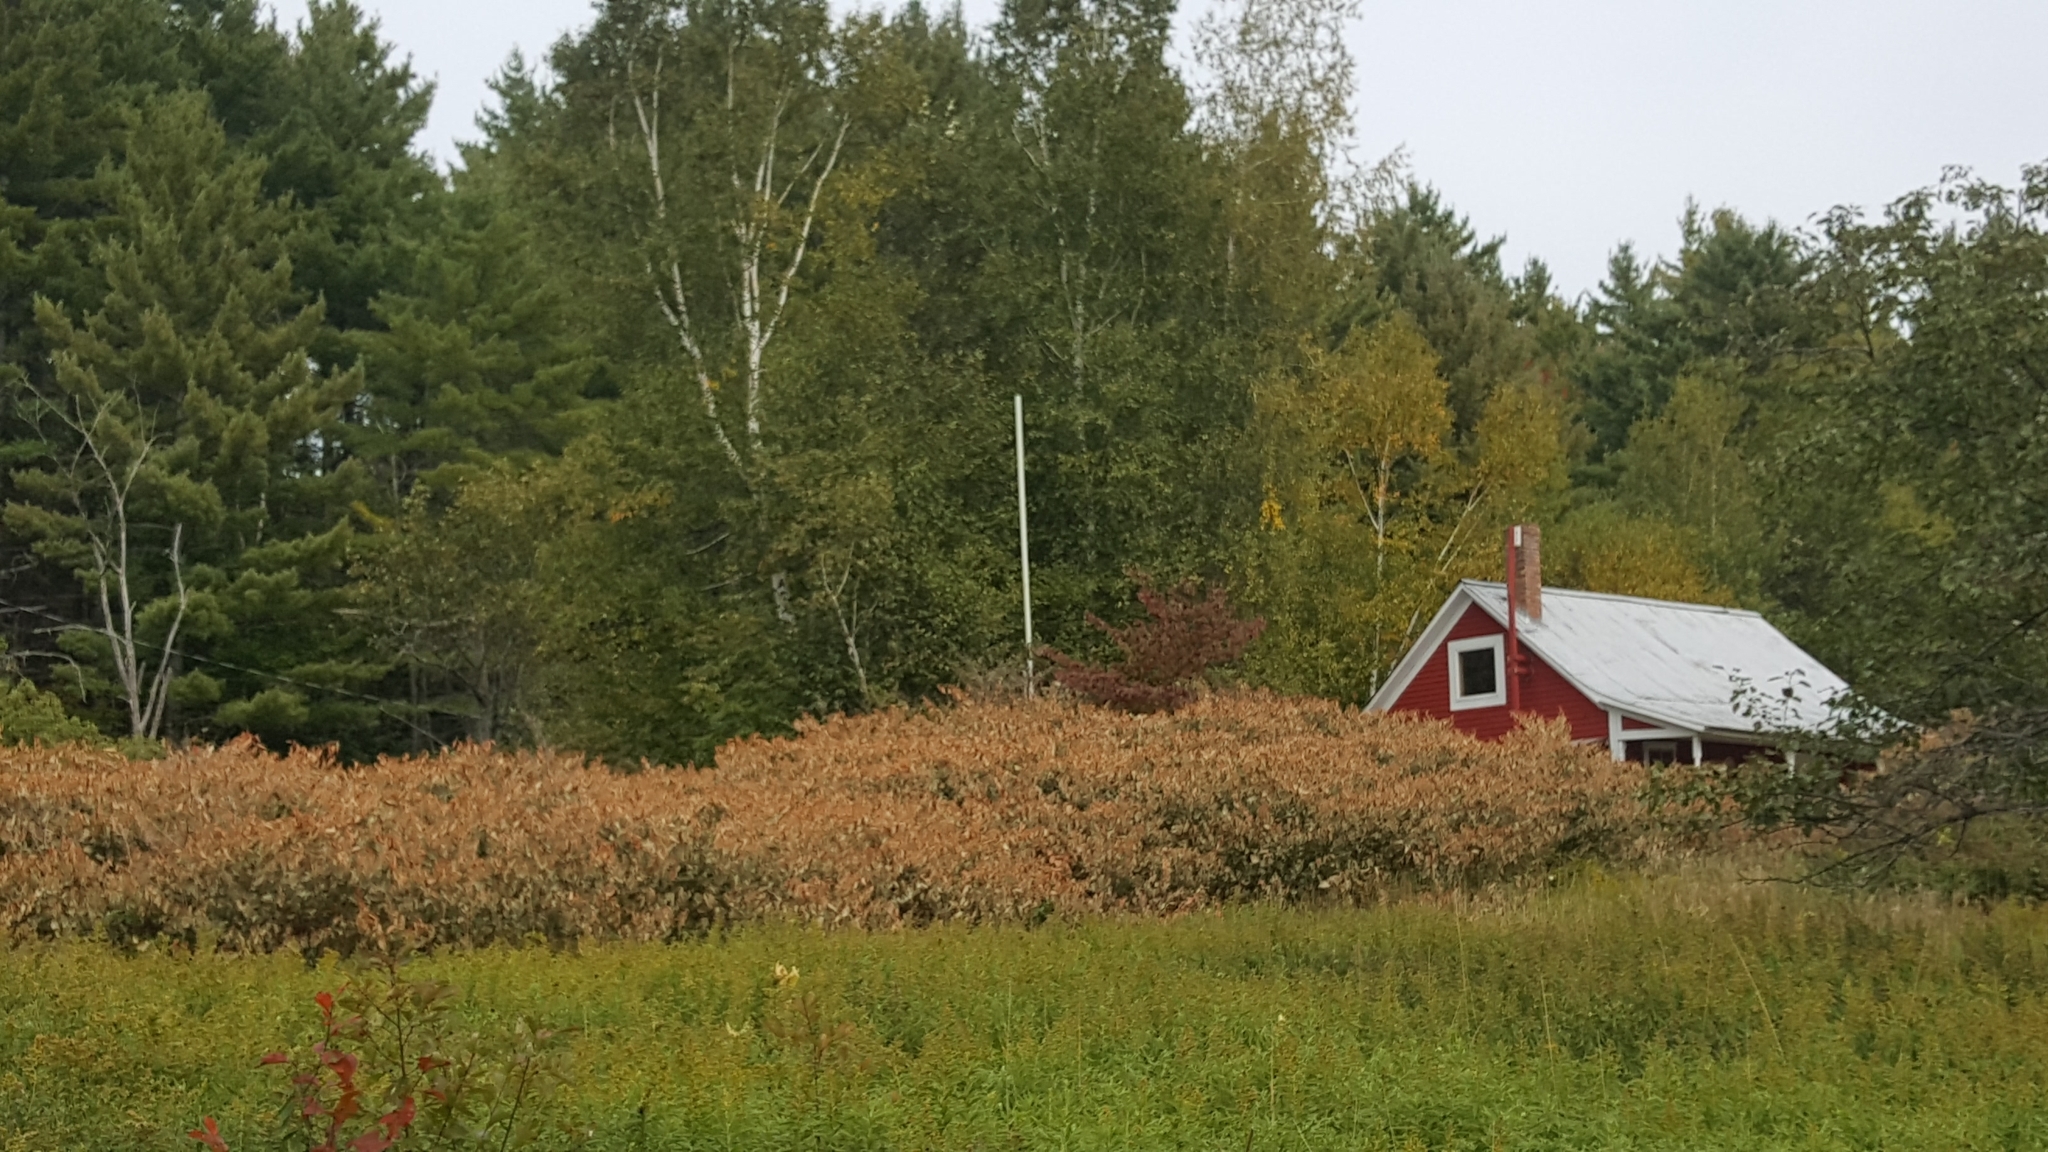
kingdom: Plantae
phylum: Tracheophyta
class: Magnoliopsida
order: Caryophyllales
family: Polygonaceae
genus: Reynoutria
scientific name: Reynoutria japonica
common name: Japanese knotweed
